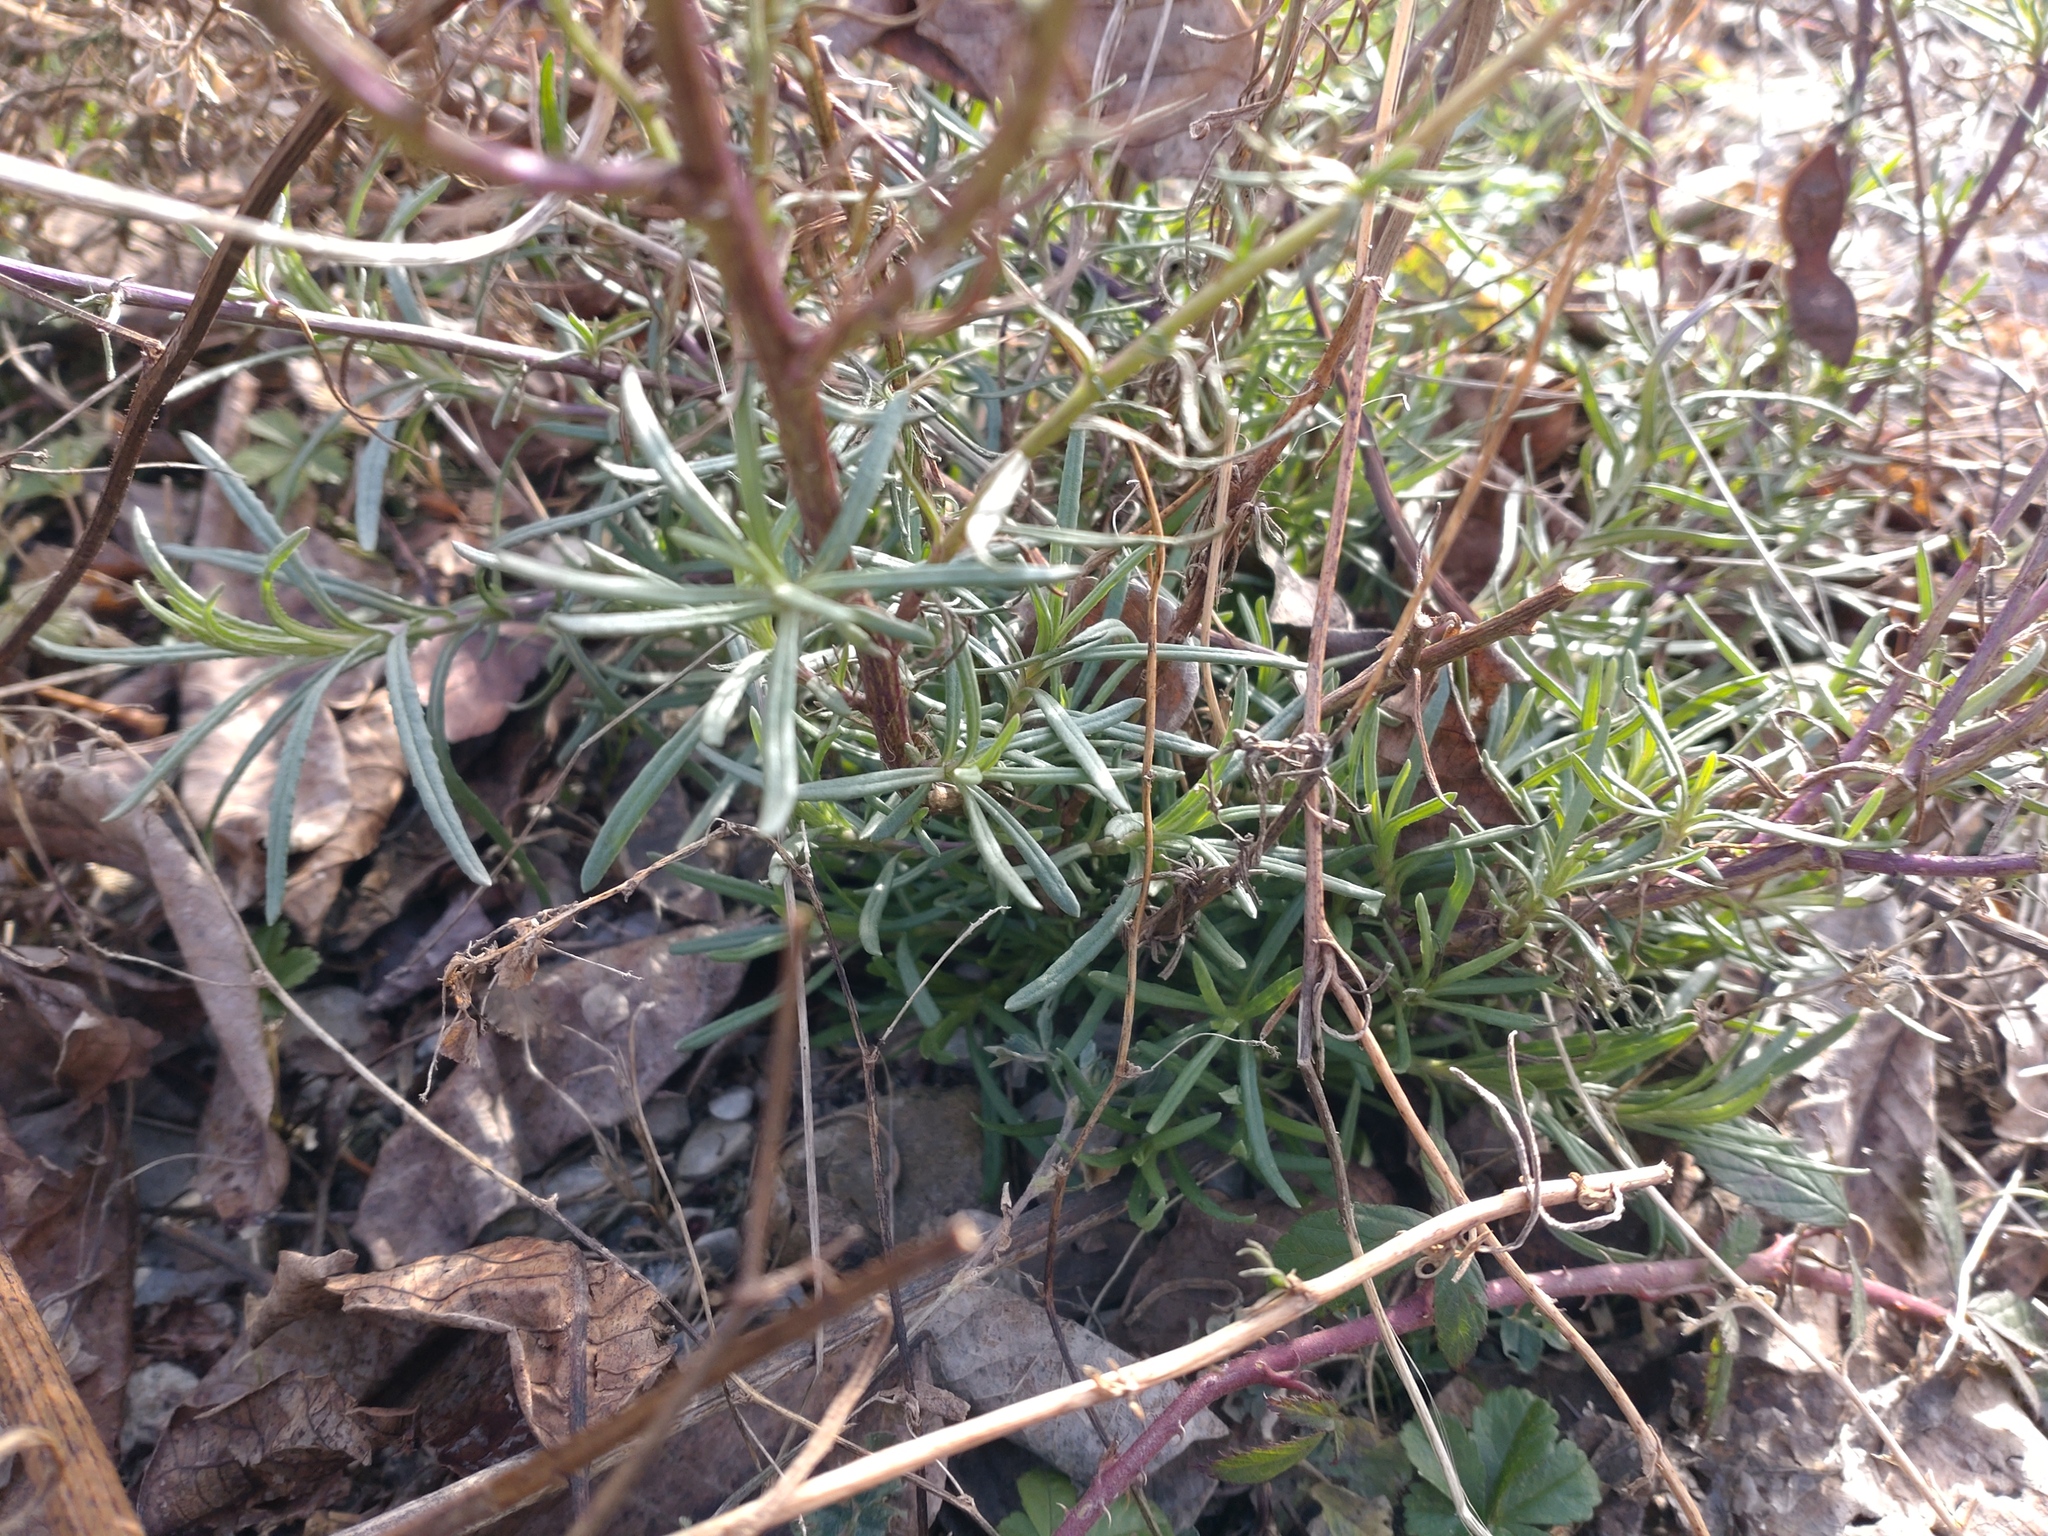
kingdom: Plantae
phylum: Tracheophyta
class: Magnoliopsida
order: Asterales
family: Asteraceae
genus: Senecio
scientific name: Senecio inaequidens
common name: Narrow-leaved ragwort
